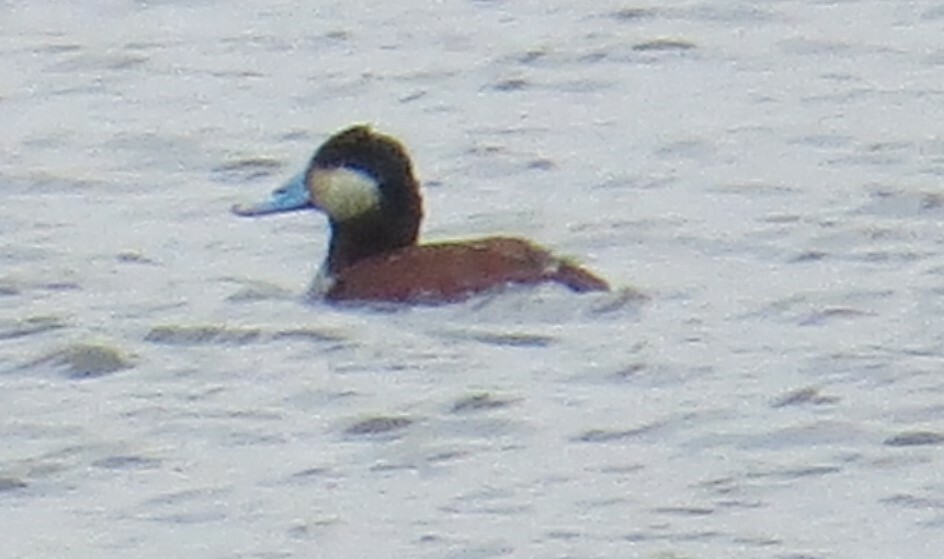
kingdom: Animalia
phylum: Chordata
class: Aves
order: Anseriformes
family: Anatidae
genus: Oxyura
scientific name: Oxyura jamaicensis
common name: Ruddy duck
